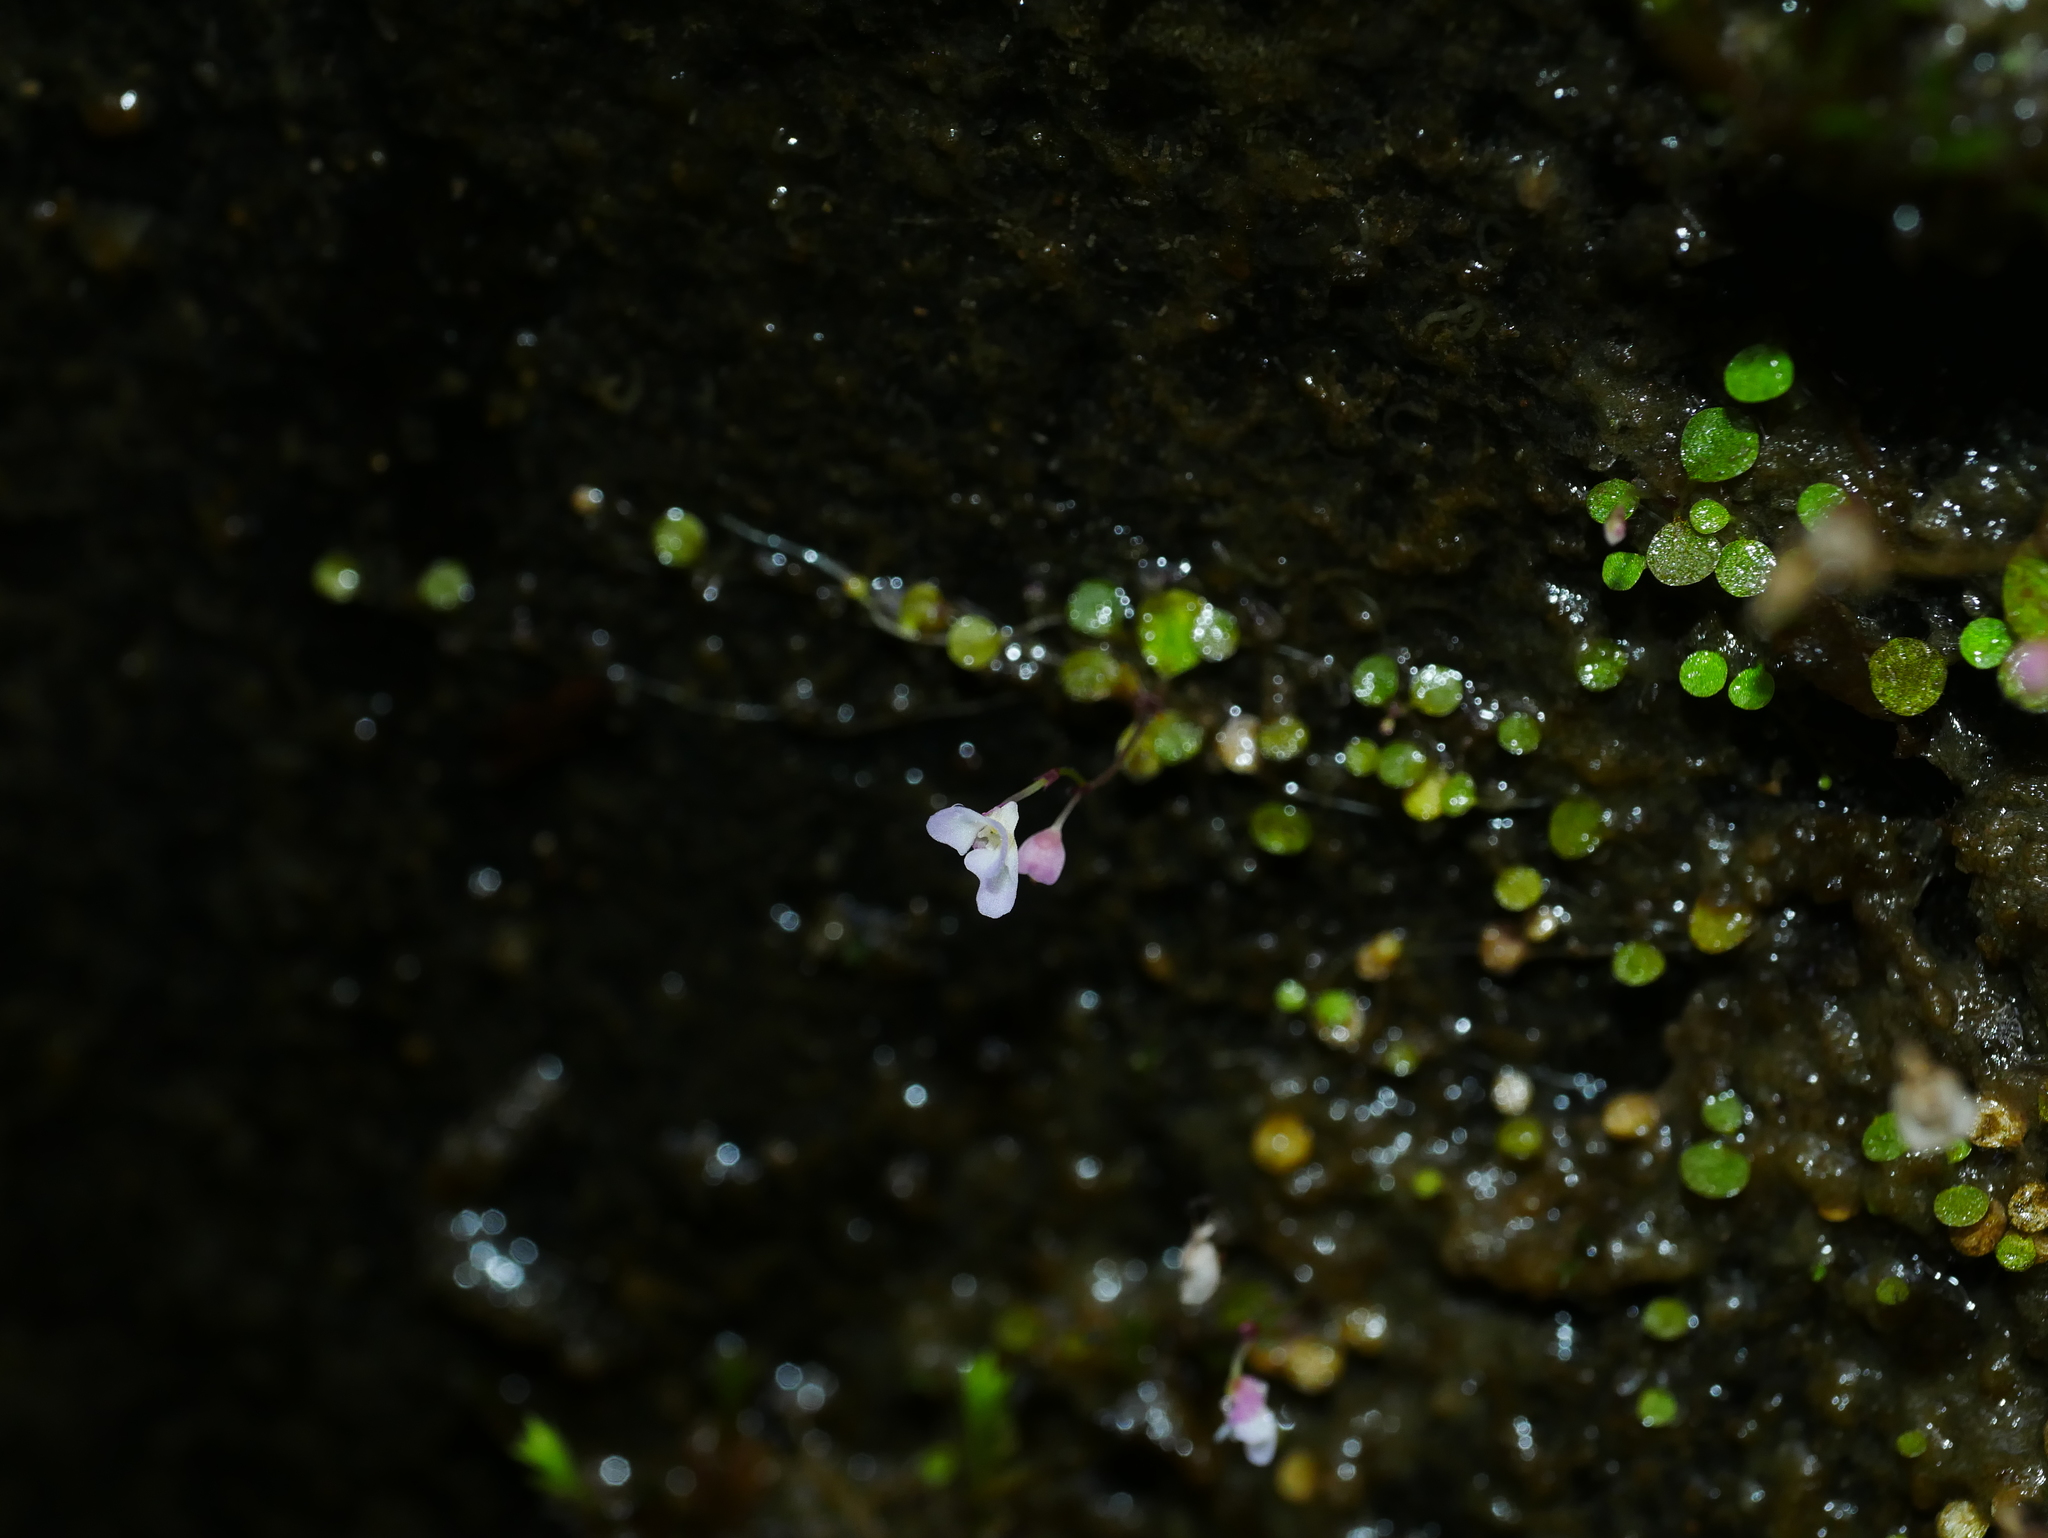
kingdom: Plantae
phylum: Tracheophyta
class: Magnoliopsida
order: Lamiales
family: Lentibulariaceae
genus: Utricularia
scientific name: Utricularia striatula
